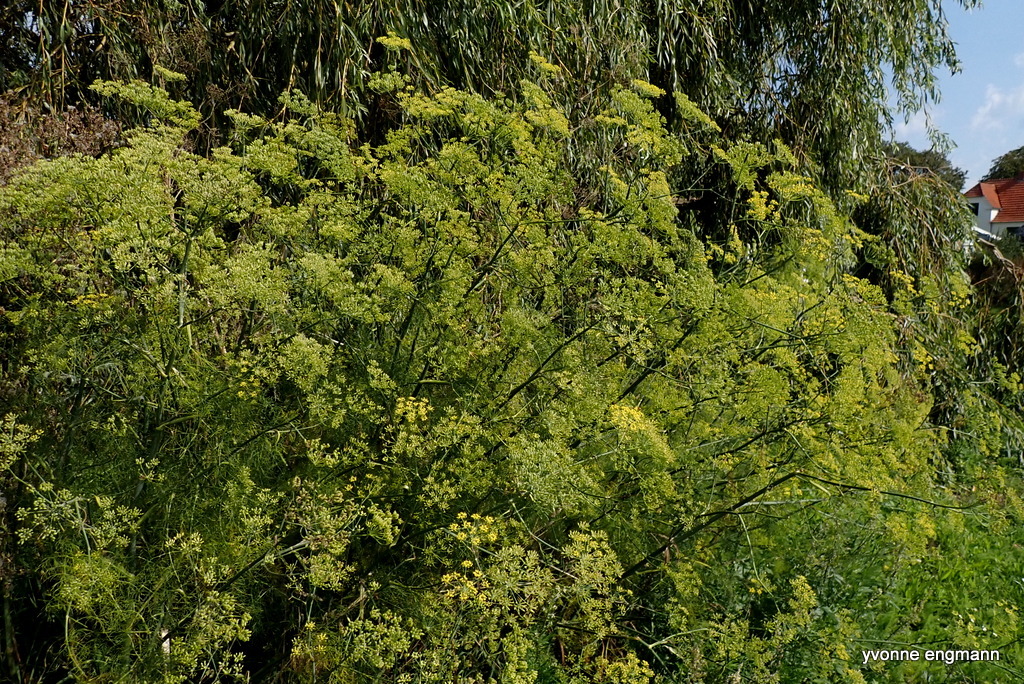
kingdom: Plantae
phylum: Tracheophyta
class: Magnoliopsida
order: Apiales
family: Apiaceae
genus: Foeniculum
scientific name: Foeniculum vulgare
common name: Fennel
